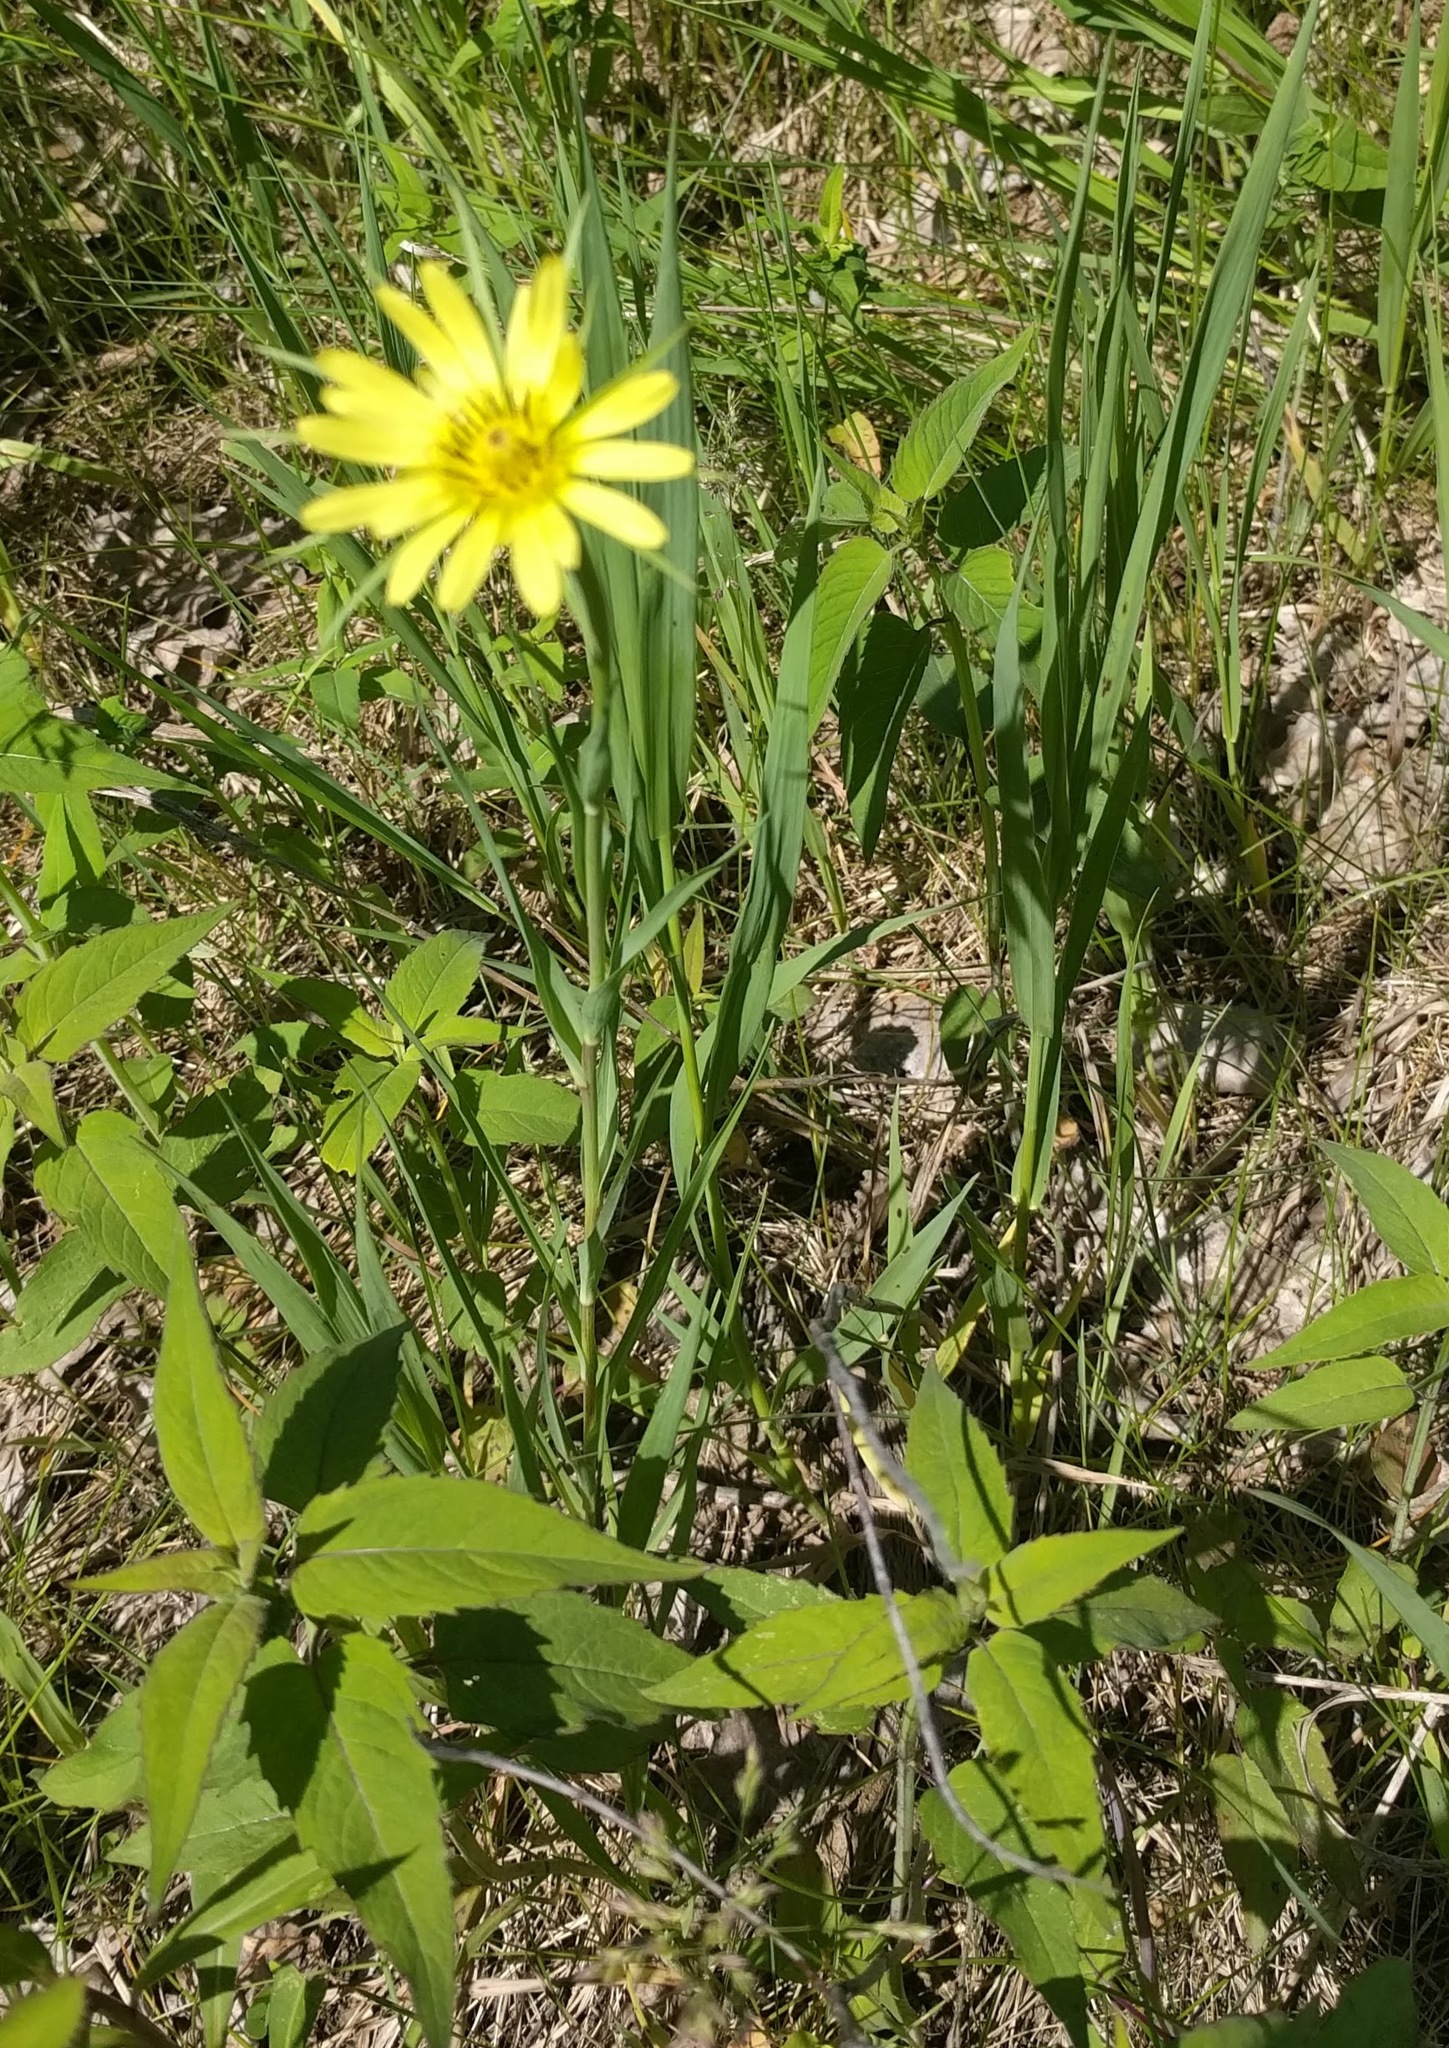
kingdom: Plantae
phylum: Tracheophyta
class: Magnoliopsida
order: Asterales
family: Asteraceae
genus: Tragopogon
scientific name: Tragopogon dubius
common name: Yellow salsify
